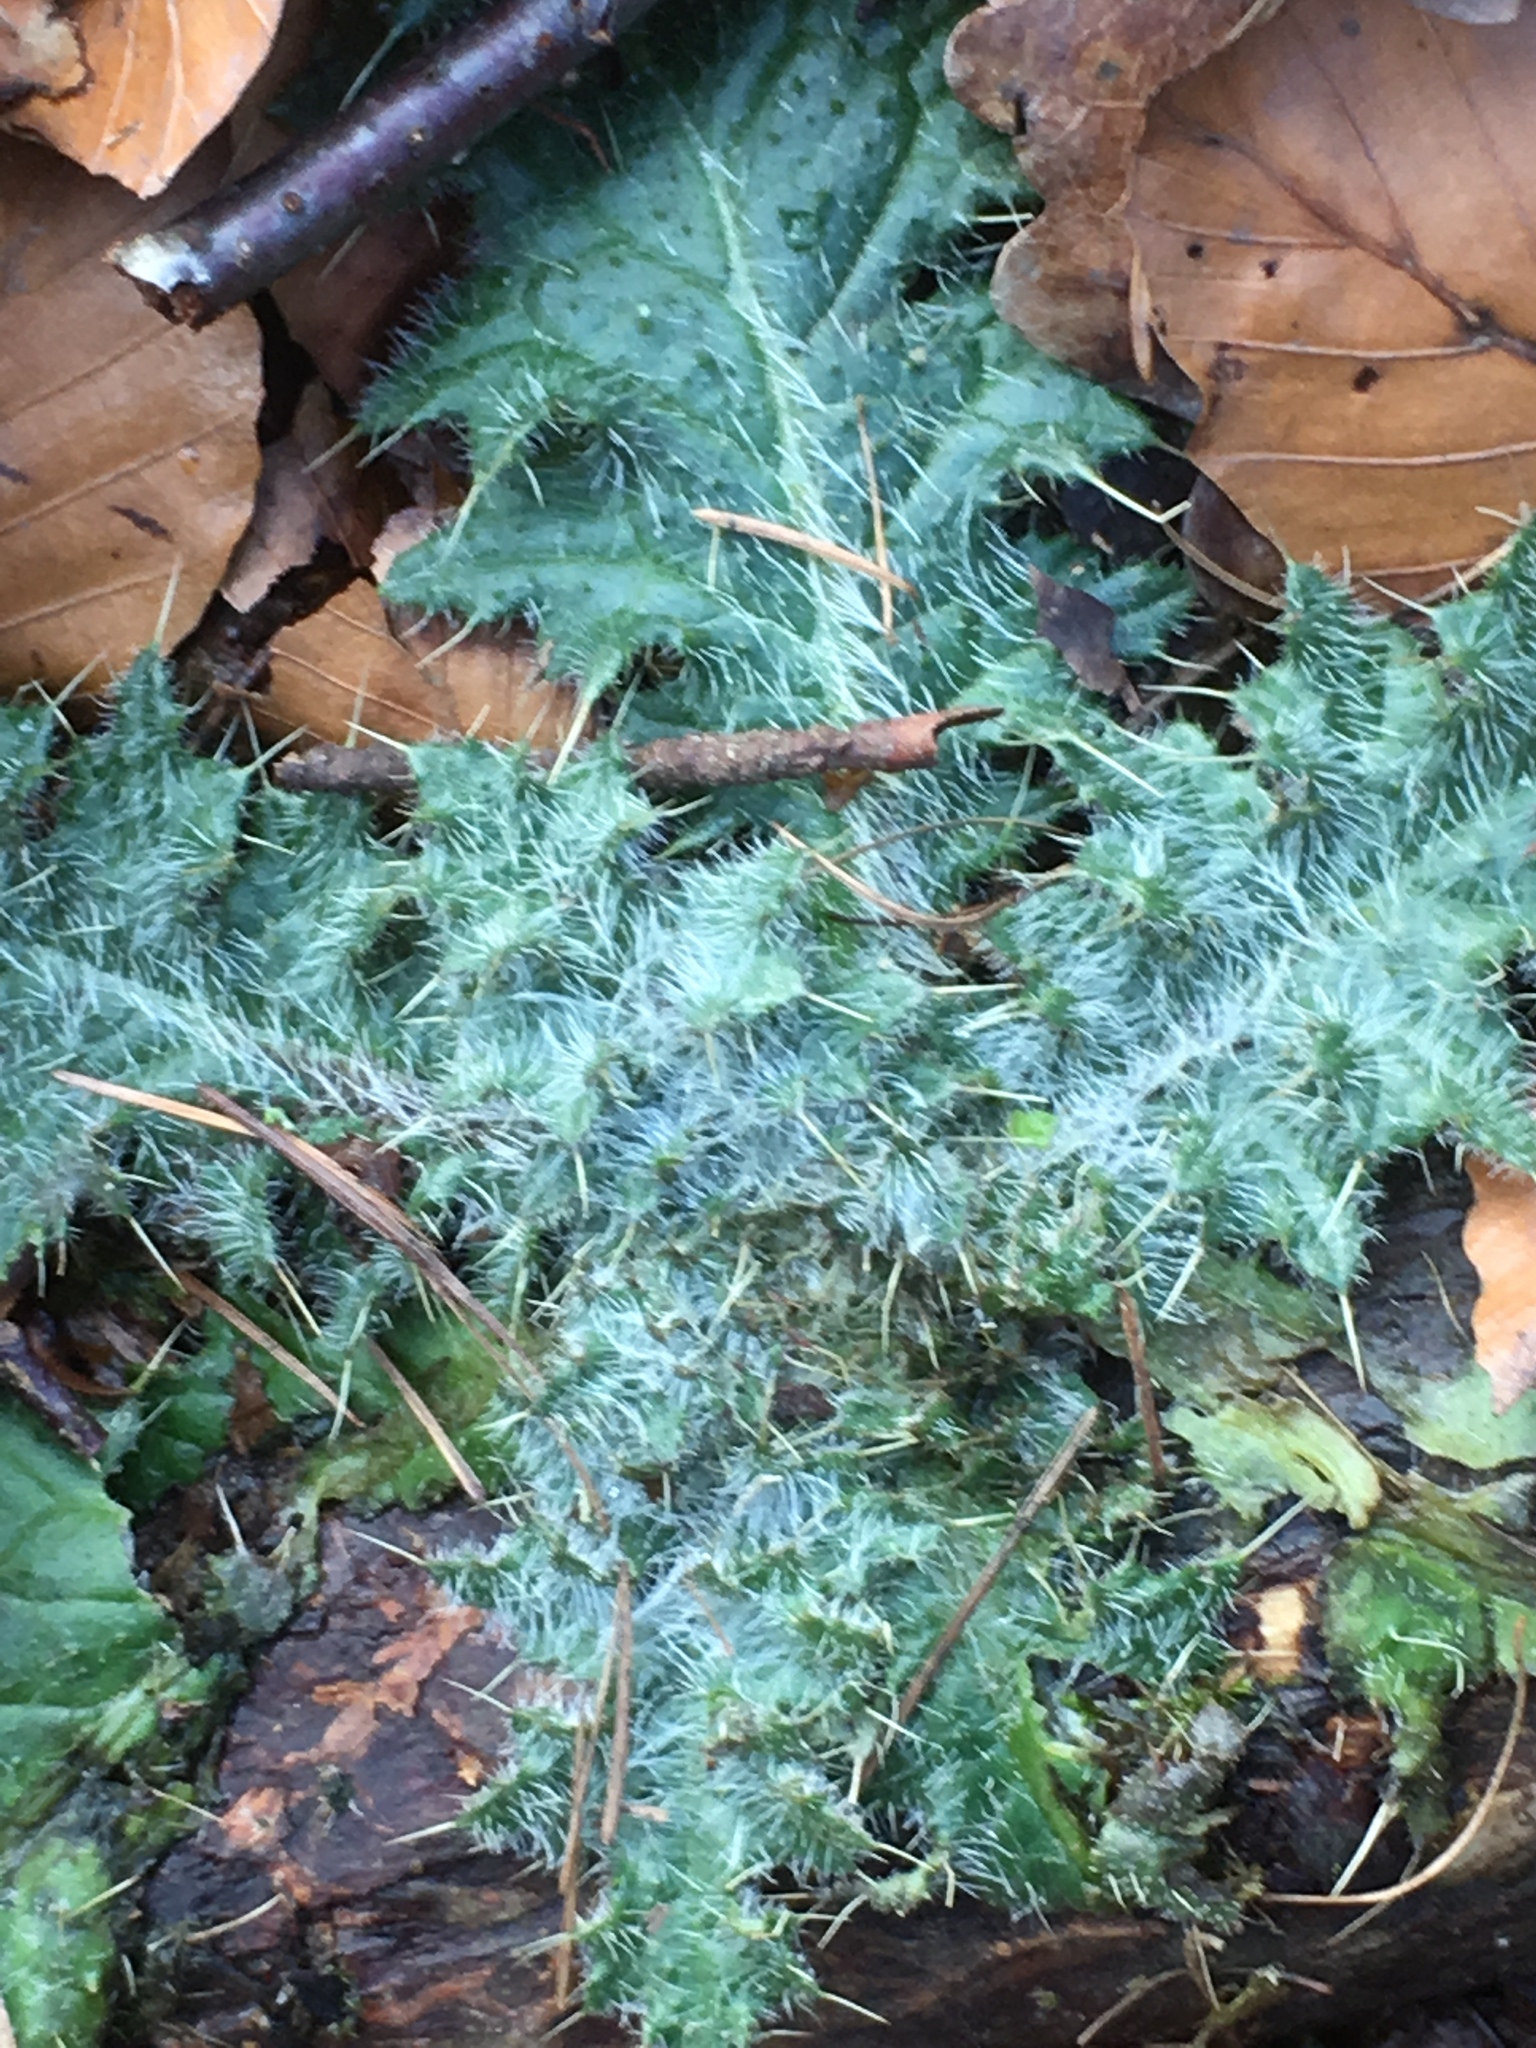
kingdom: Plantae
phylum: Tracheophyta
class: Magnoliopsida
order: Asterales
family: Asteraceae
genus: Cirsium
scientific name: Cirsium vulgare
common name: Bull thistle
